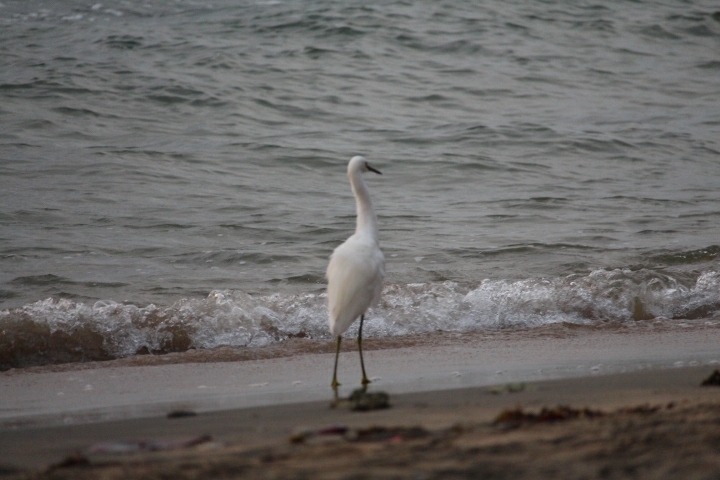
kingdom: Animalia
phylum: Chordata
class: Aves
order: Pelecaniformes
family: Ardeidae
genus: Egretta
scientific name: Egretta thula
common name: Snowy egret
